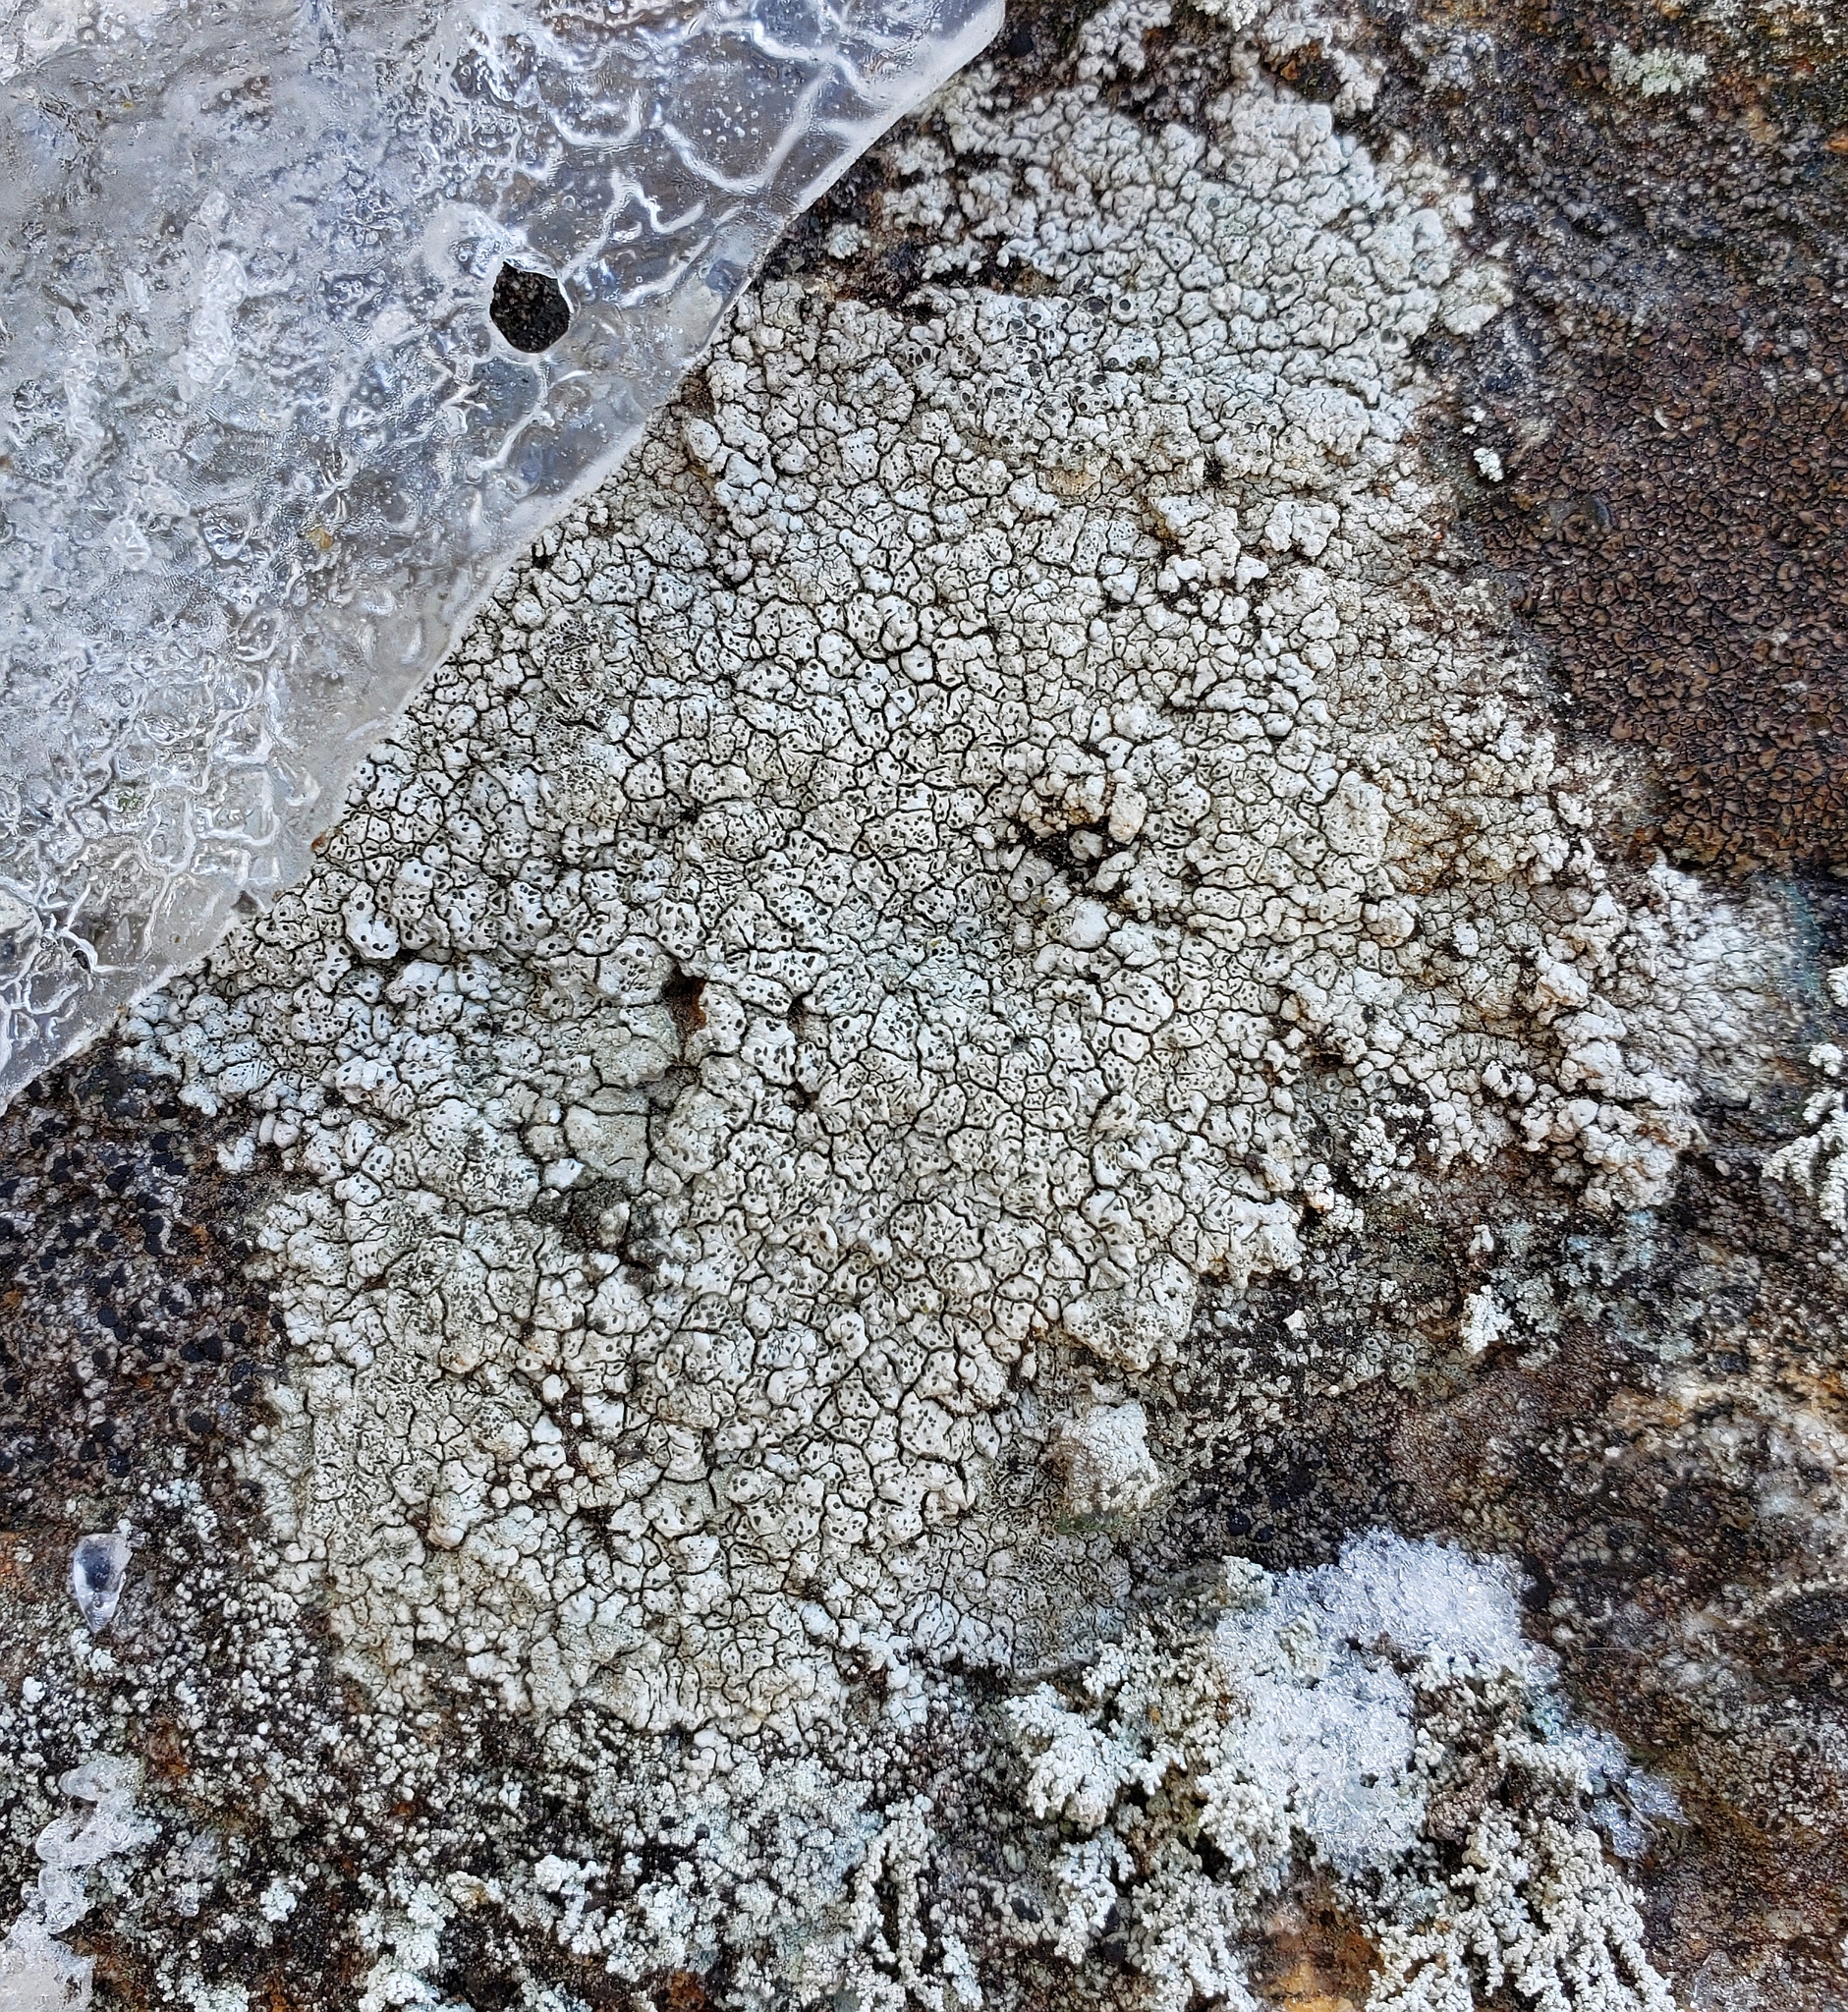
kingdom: Fungi
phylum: Ascomycota
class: Lecanoromycetes
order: Pertusariales
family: Megasporaceae
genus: Aspicilia
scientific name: Aspicilia cinerea
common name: Cinder lichen
